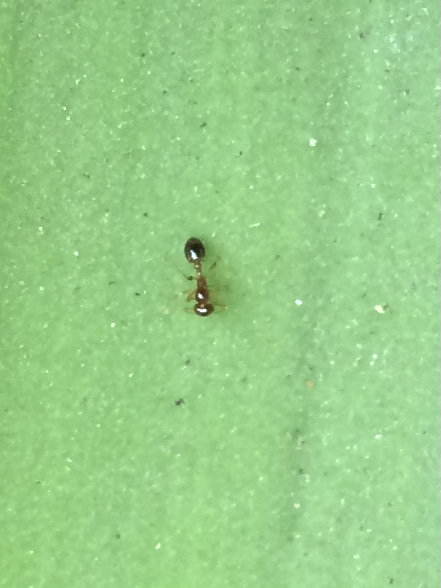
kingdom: Animalia
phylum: Arthropoda
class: Insecta
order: Hymenoptera
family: Formicidae
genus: Erromyrma
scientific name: Erromyrma latinodis
